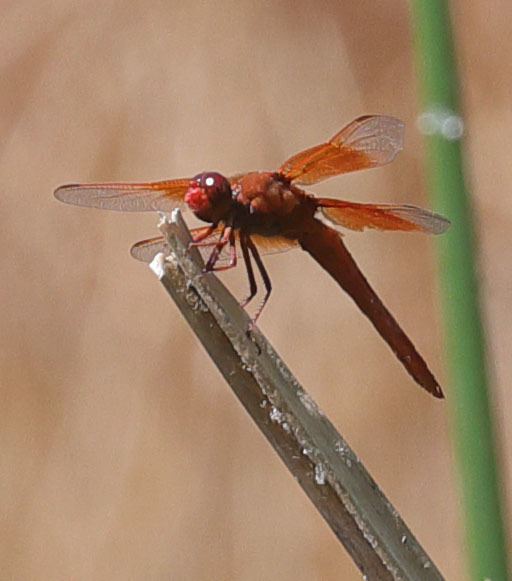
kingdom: Animalia
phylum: Arthropoda
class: Insecta
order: Odonata
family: Libellulidae
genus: Libellula
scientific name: Libellula saturata
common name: Flame skimmer
